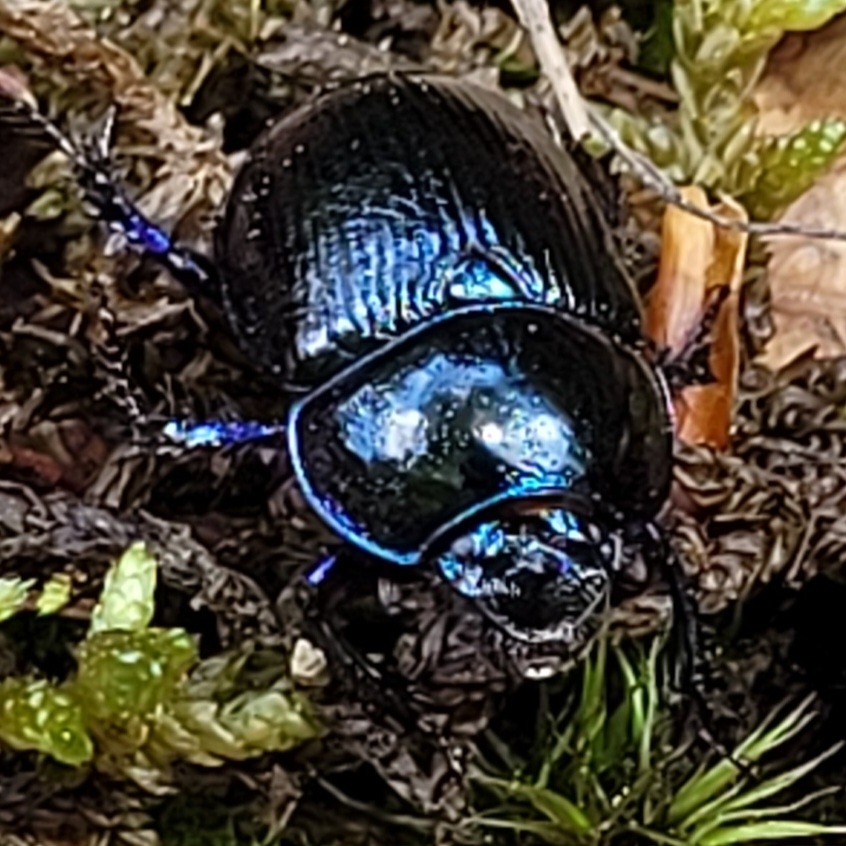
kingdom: Animalia
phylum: Arthropoda
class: Insecta
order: Coleoptera
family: Geotrupidae
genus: Anoplotrupes
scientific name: Anoplotrupes stercorosus
